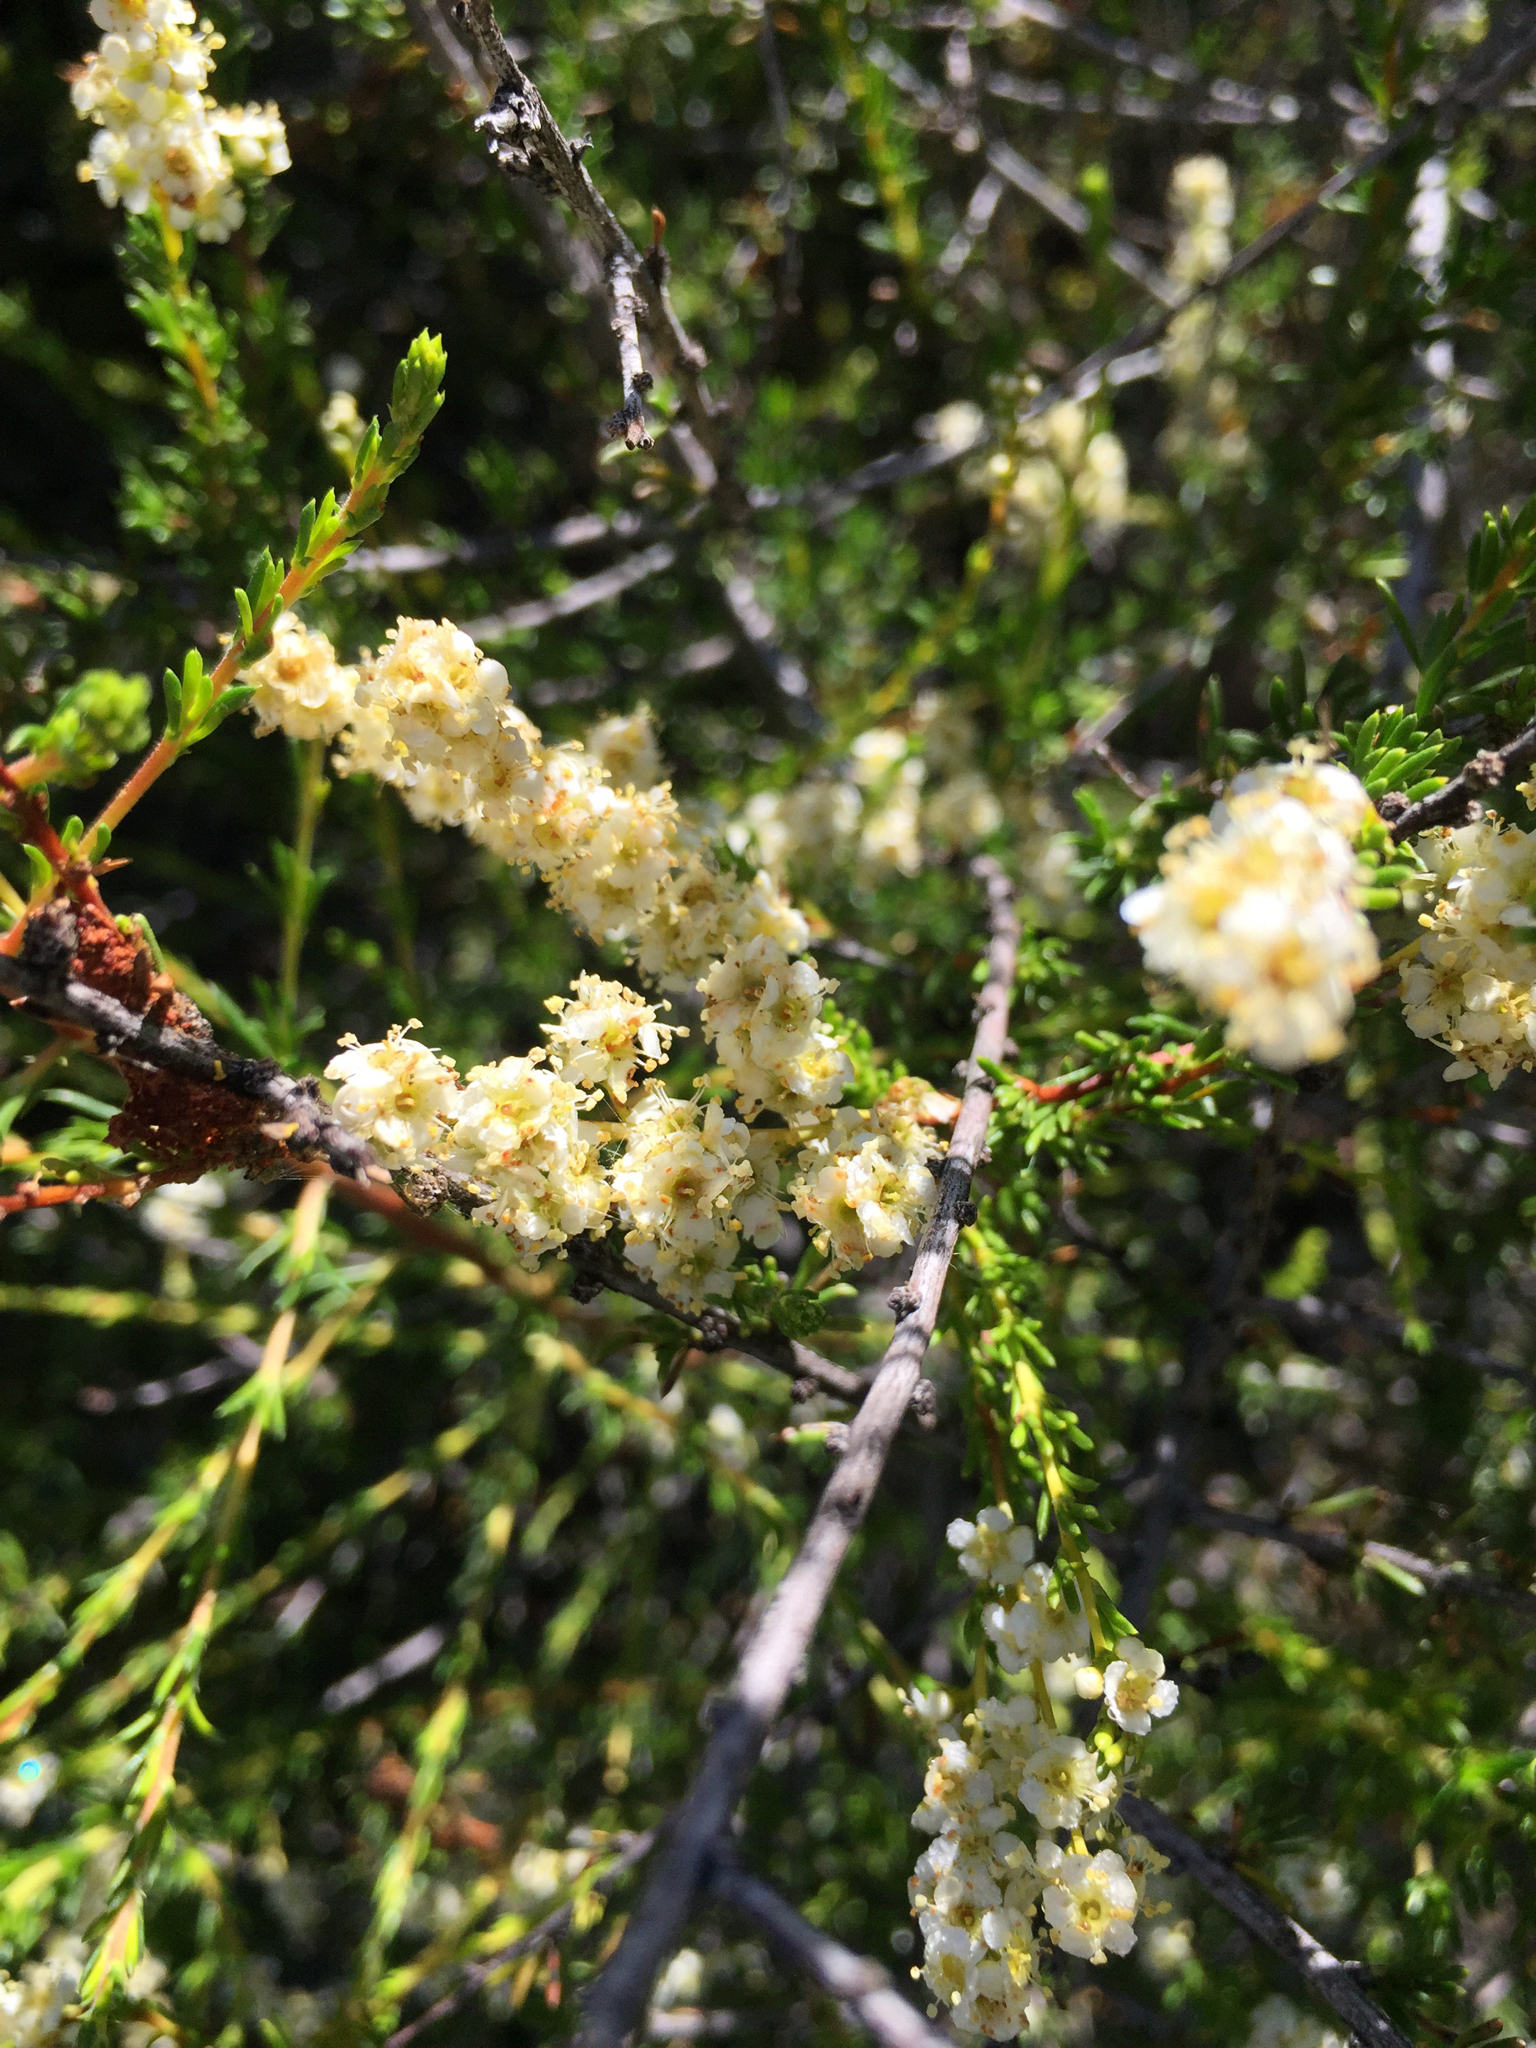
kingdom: Plantae
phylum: Tracheophyta
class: Magnoliopsida
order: Rosales
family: Rosaceae
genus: Adenostoma
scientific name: Adenostoma fasciculatum
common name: Chamise
